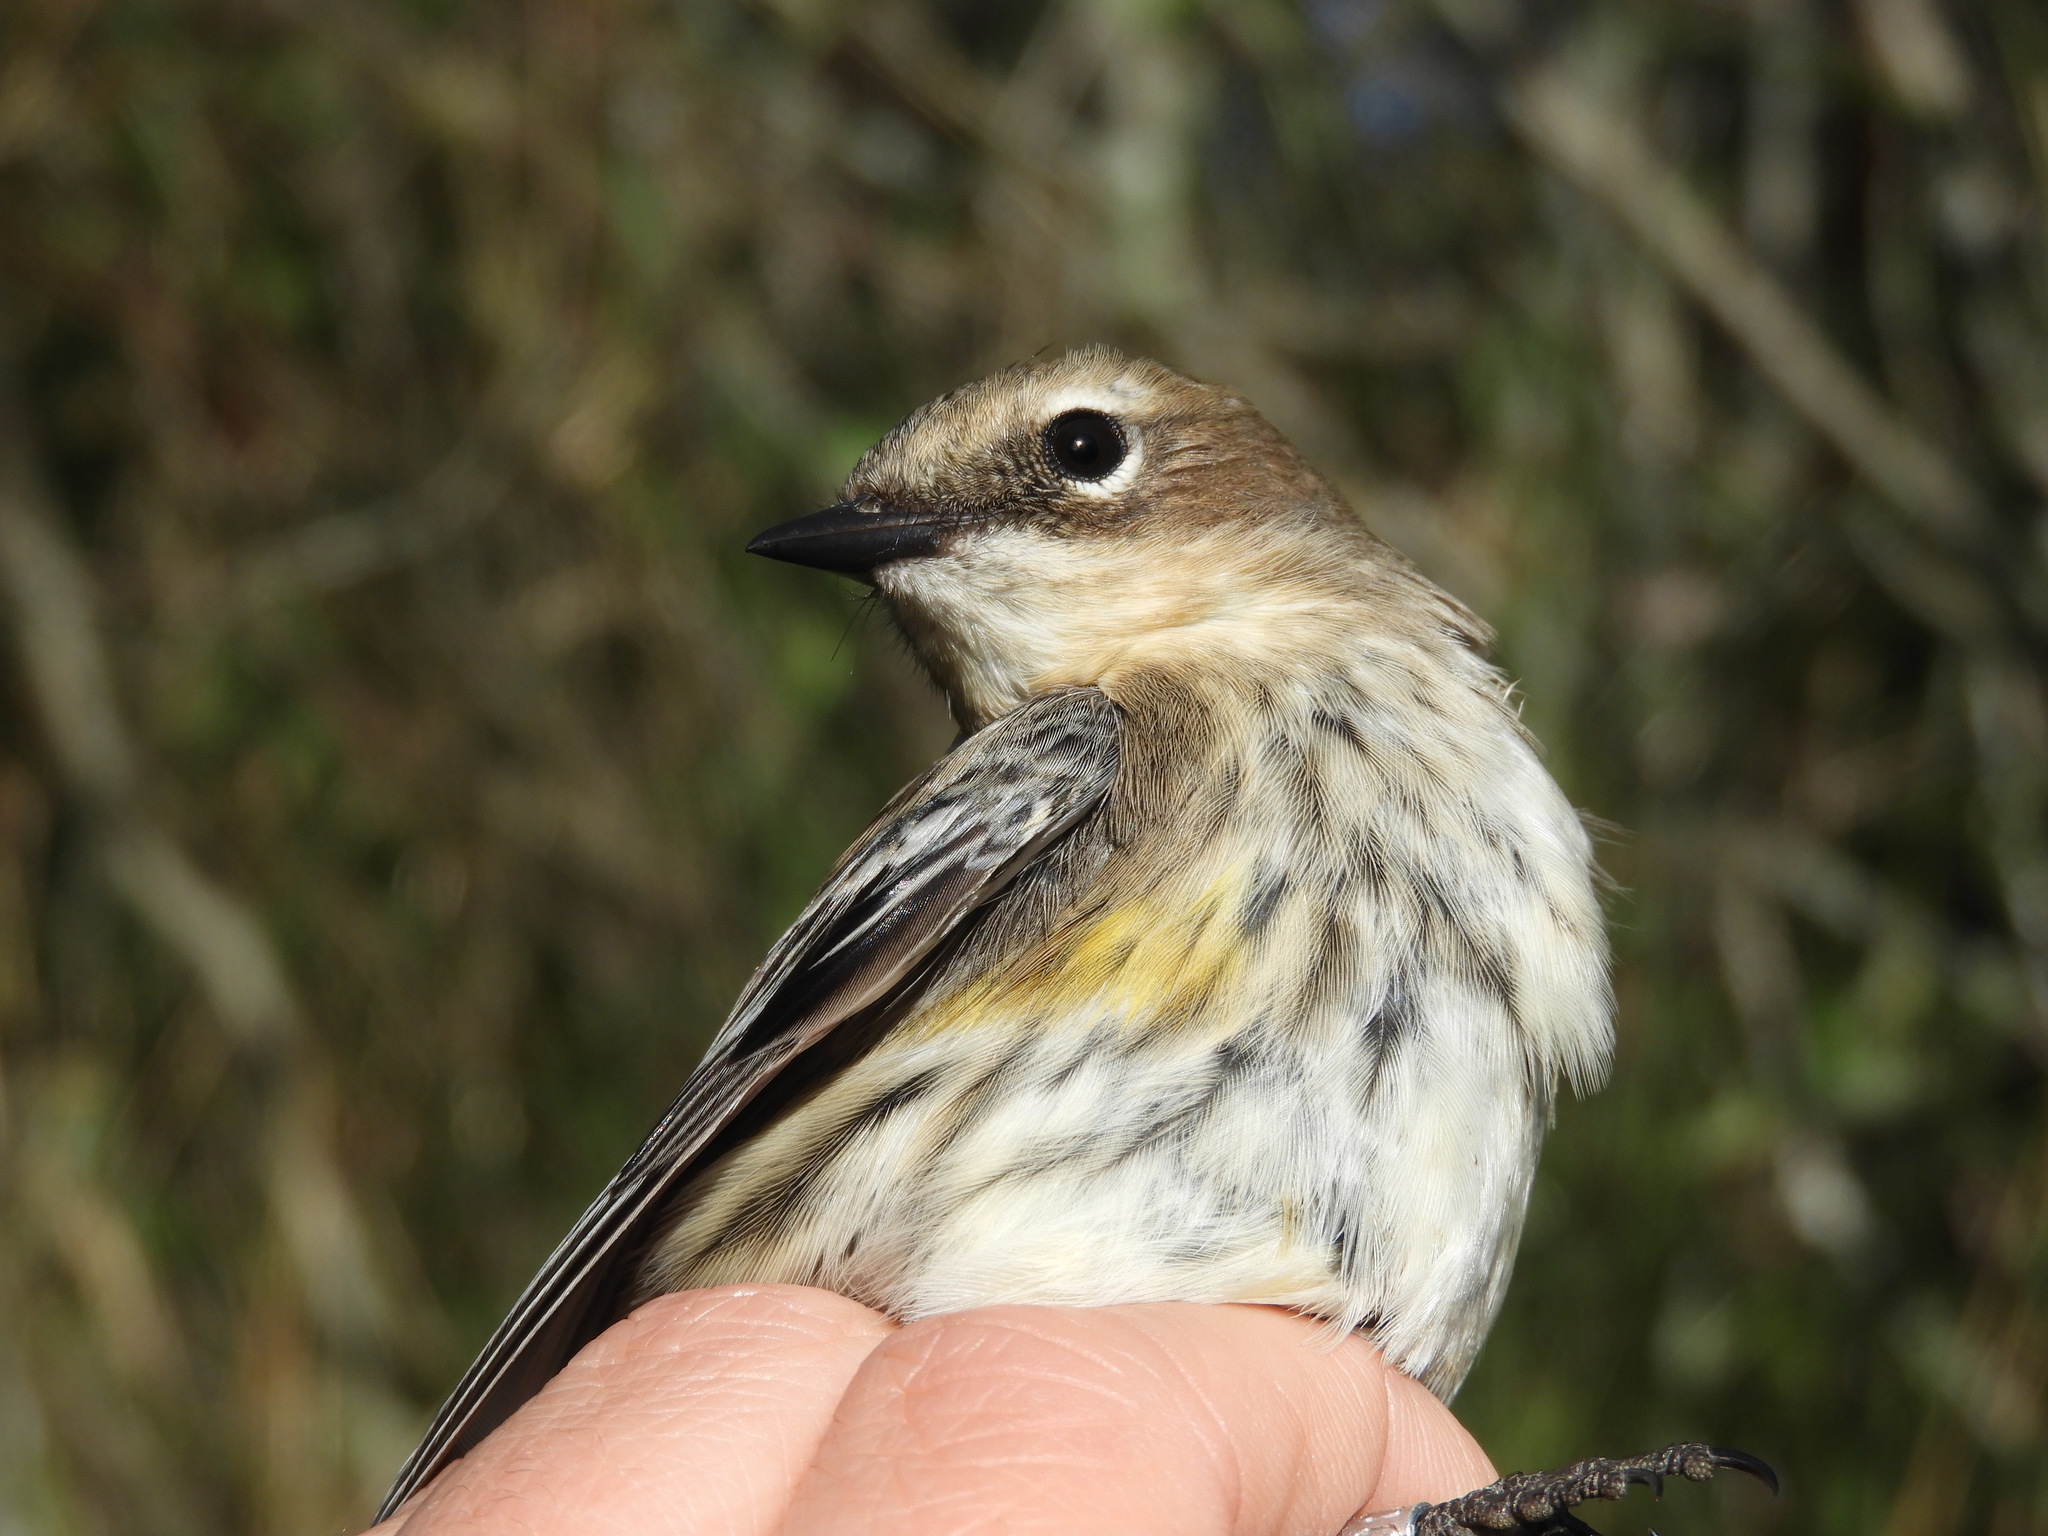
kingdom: Animalia
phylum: Chordata
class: Aves
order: Passeriformes
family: Parulidae
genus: Setophaga
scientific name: Setophaga coronata
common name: Myrtle warbler
